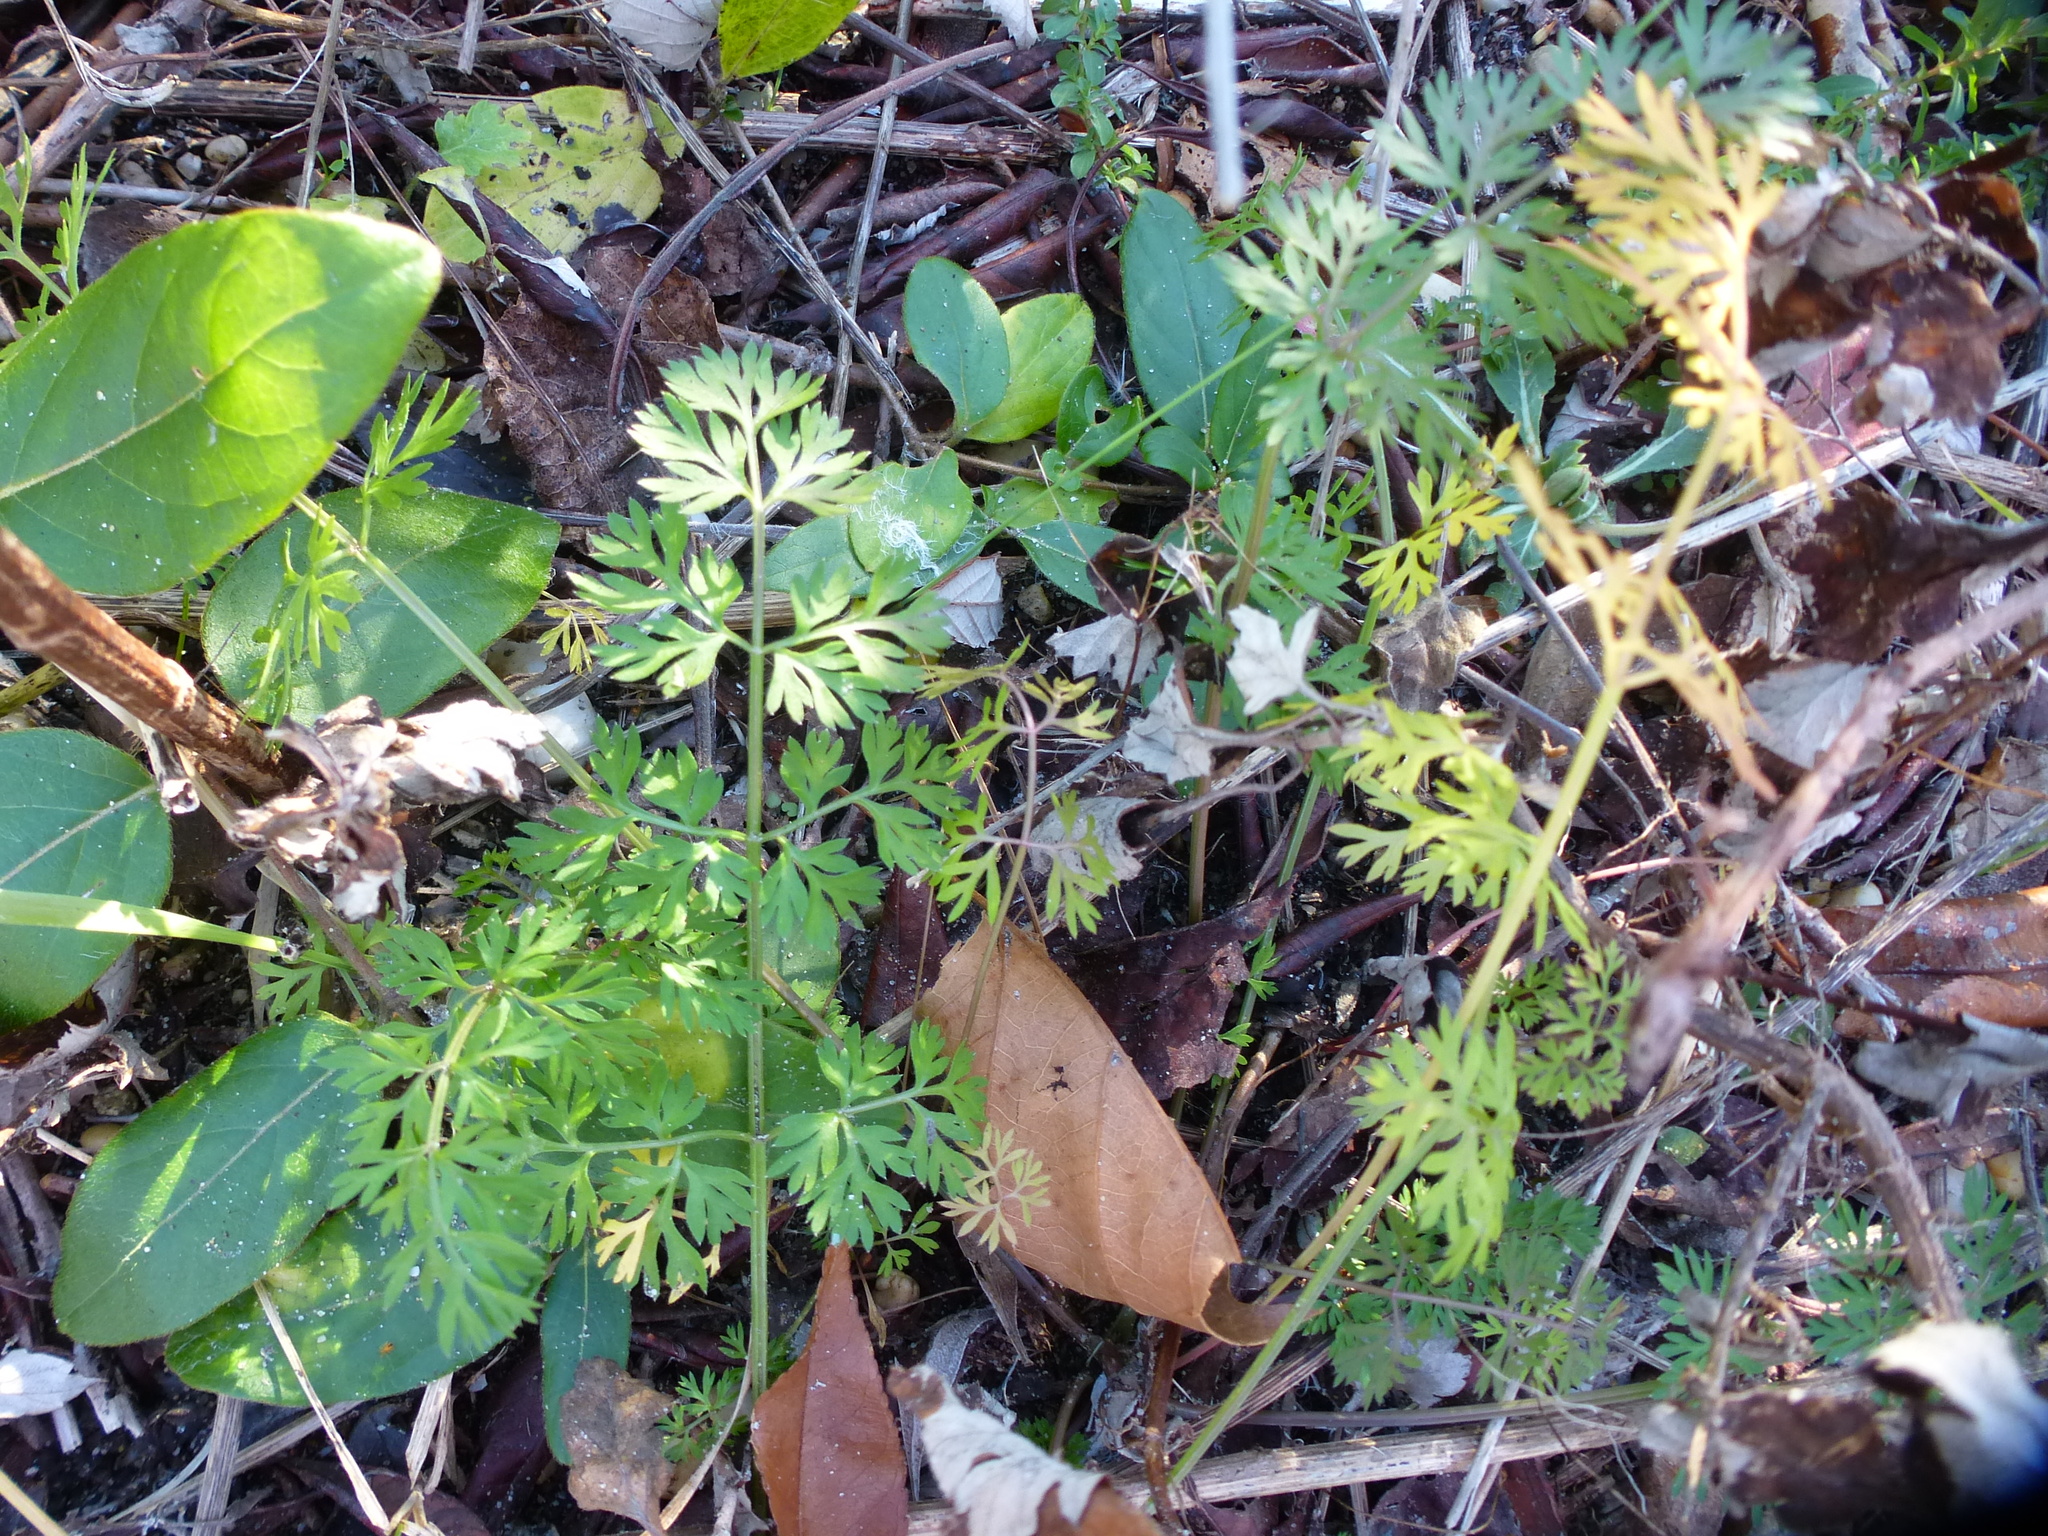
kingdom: Plantae
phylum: Tracheophyta
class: Magnoliopsida
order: Apiales
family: Apiaceae
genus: Daucus
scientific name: Daucus carota
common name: Wild carrot
